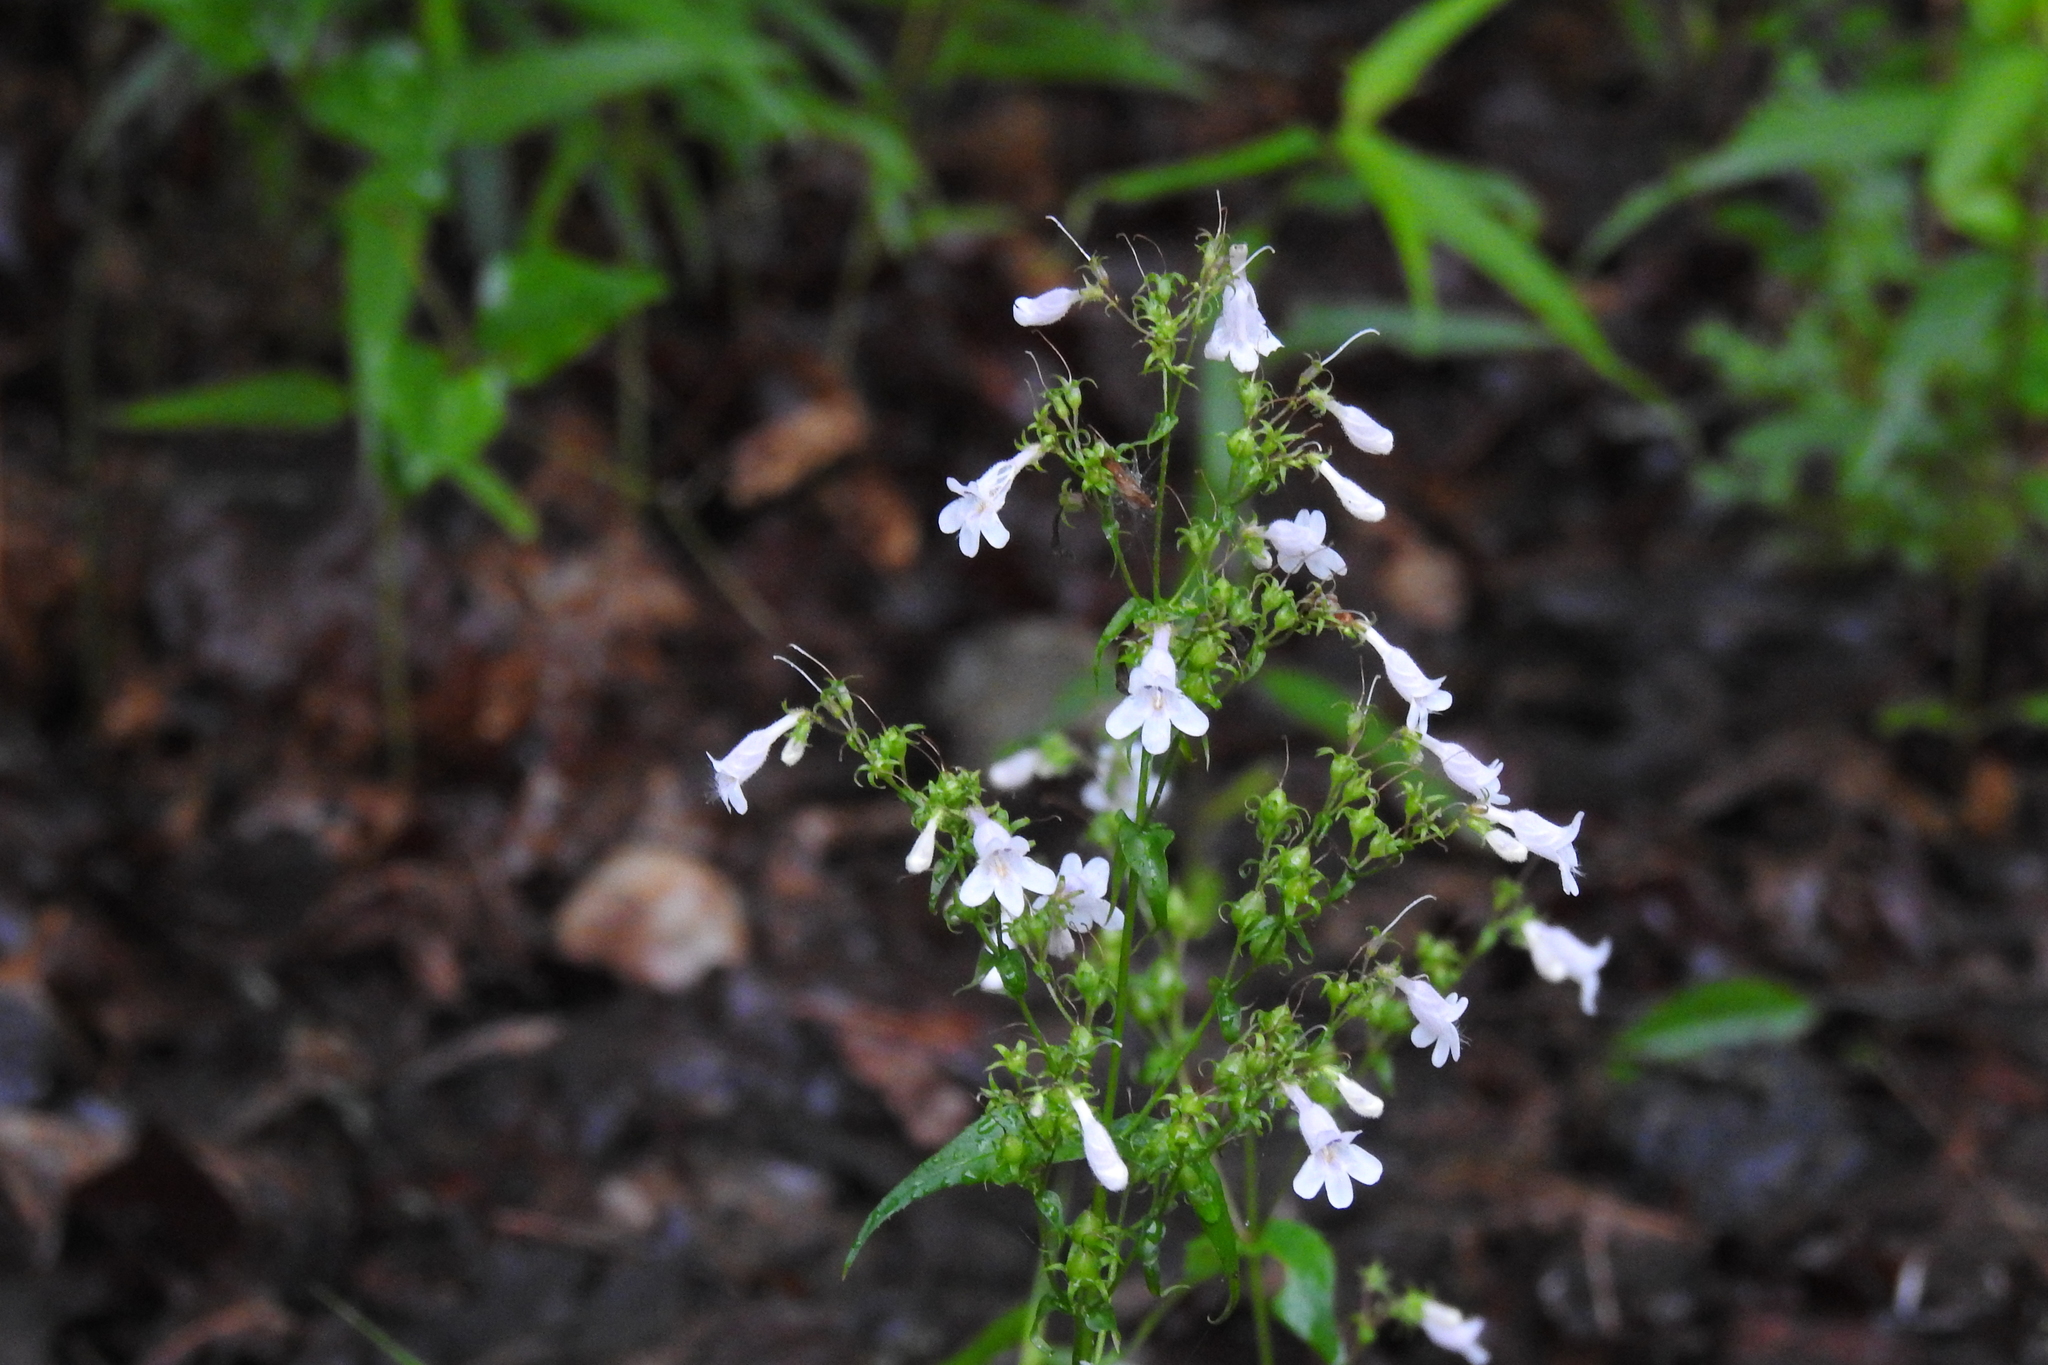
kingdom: Plantae
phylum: Tracheophyta
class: Magnoliopsida
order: Lamiales
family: Plantaginaceae
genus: Penstemon
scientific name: Penstemon digitalis
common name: Foxglove beardtongue
